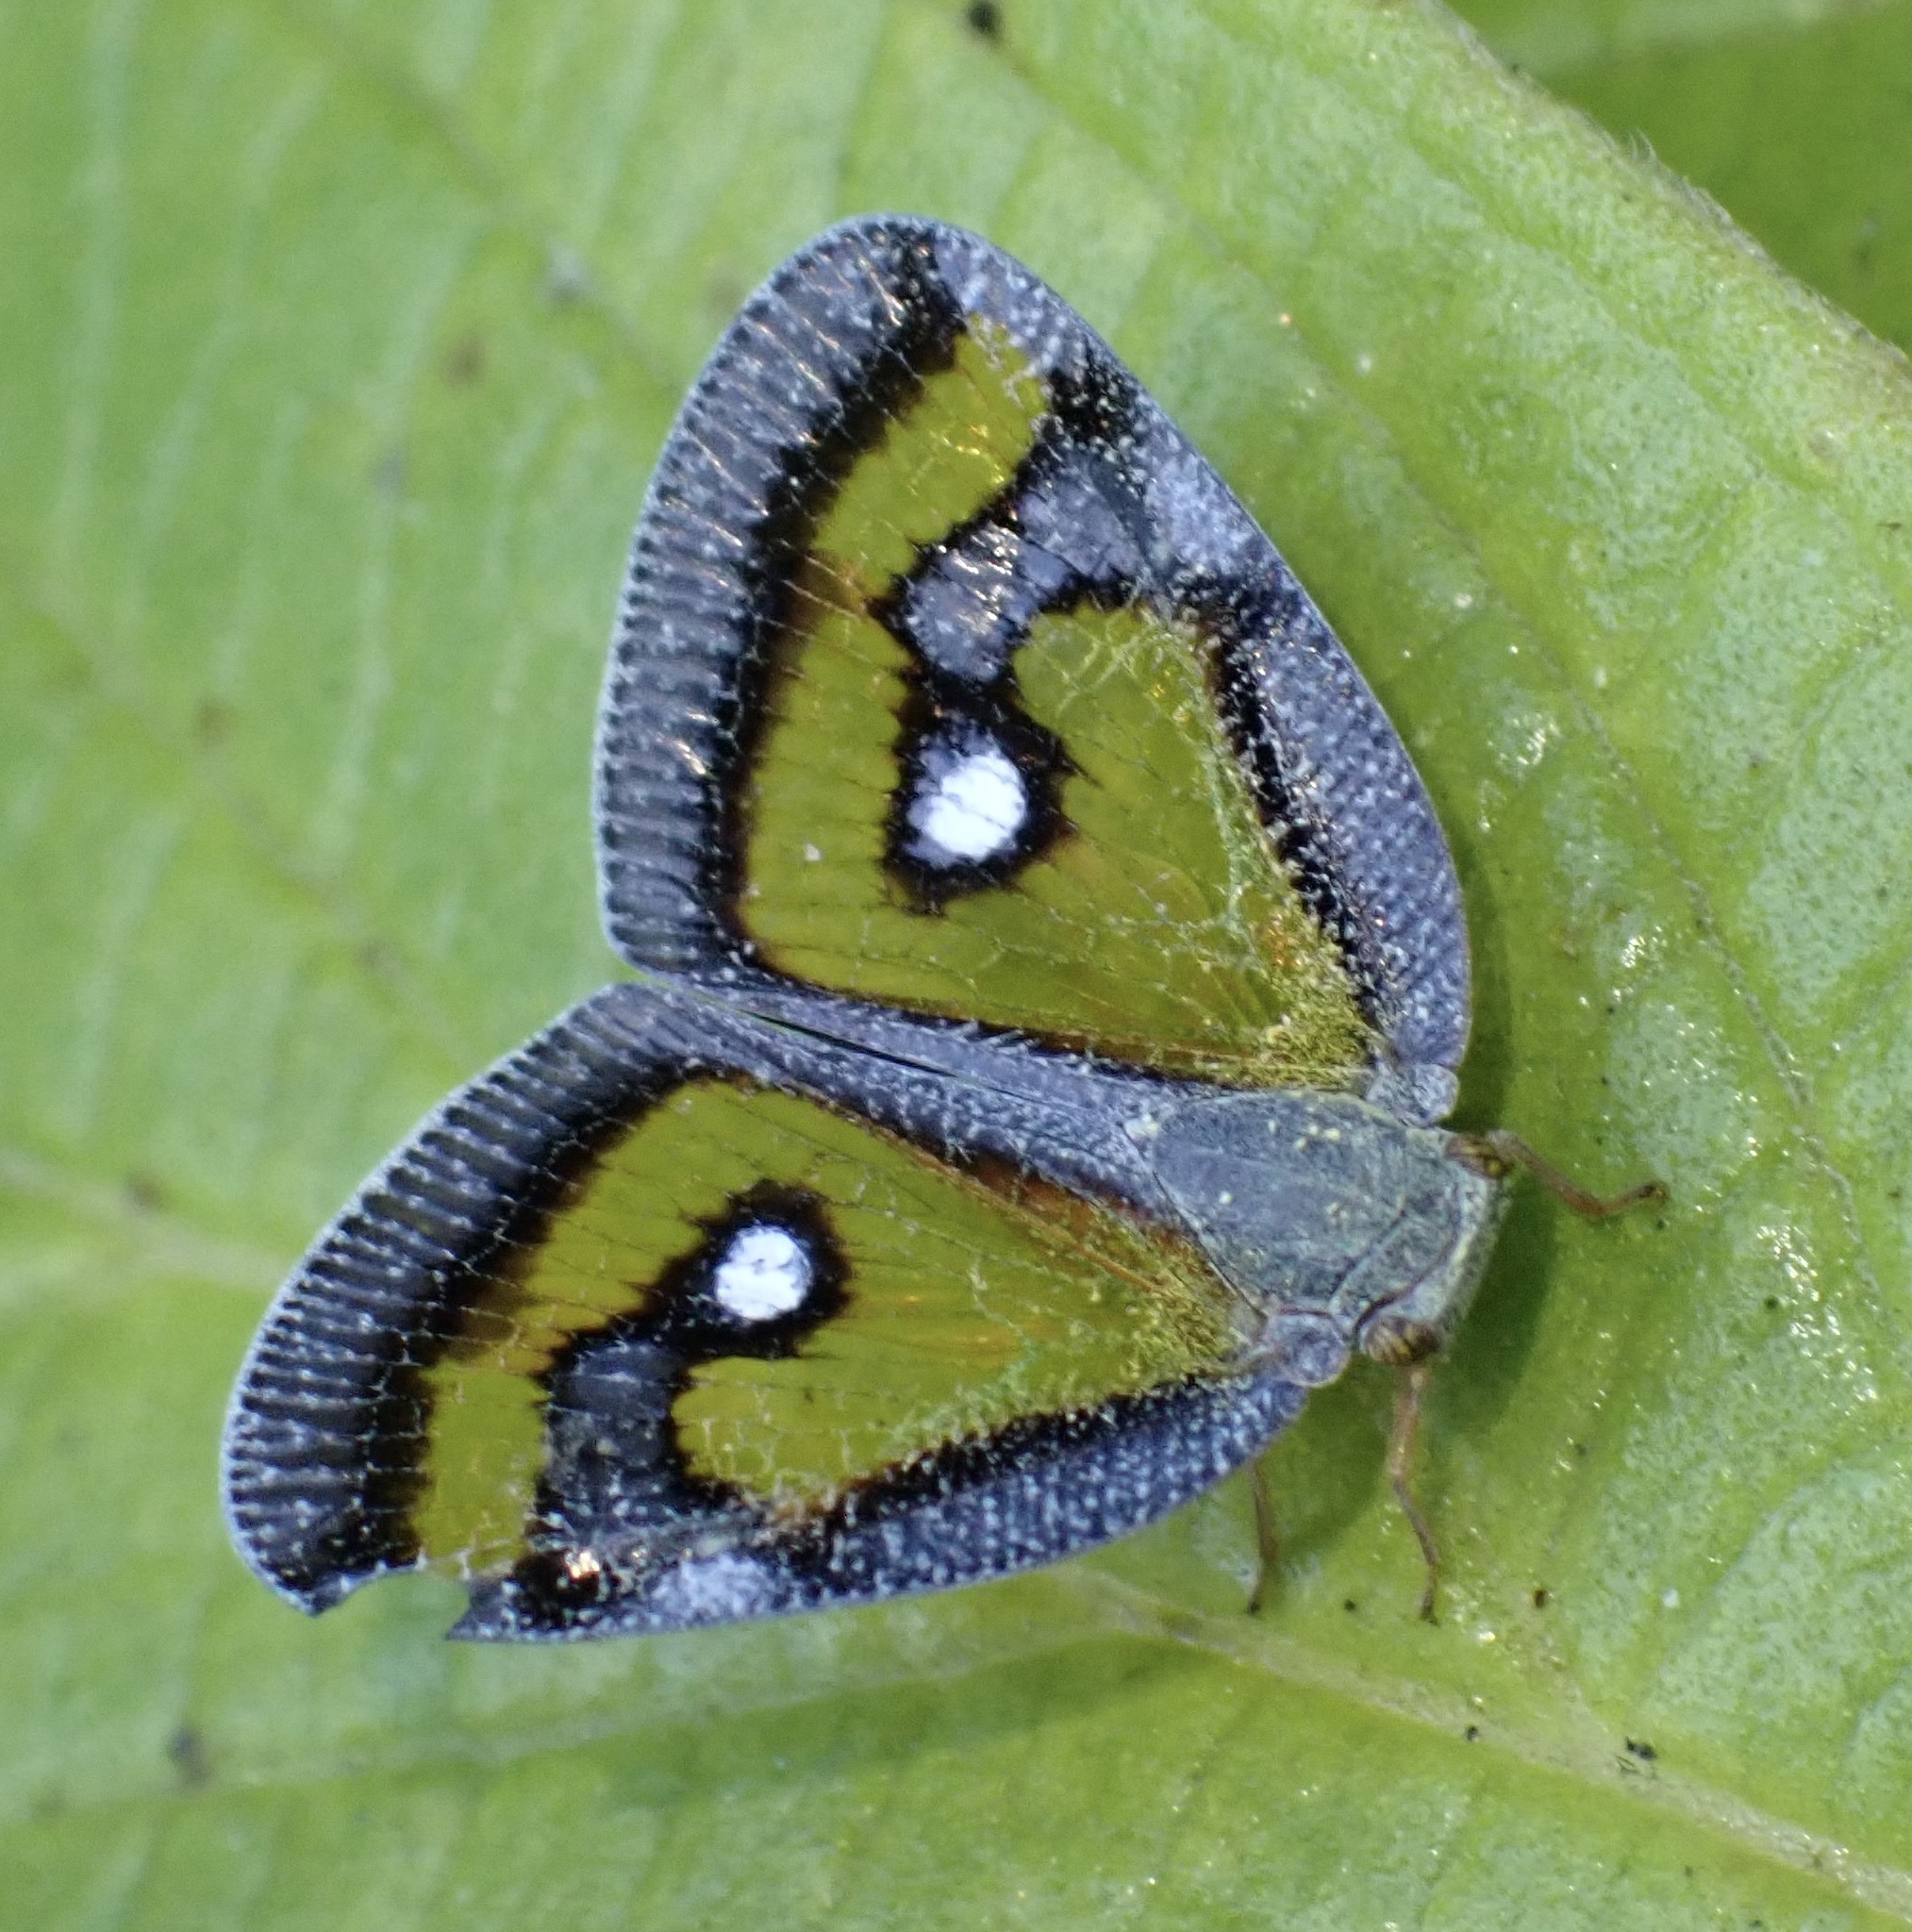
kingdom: Animalia
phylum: Arthropoda
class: Insecta
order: Hemiptera
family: Ricaniidae
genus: Euricania
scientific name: Euricania splendida
